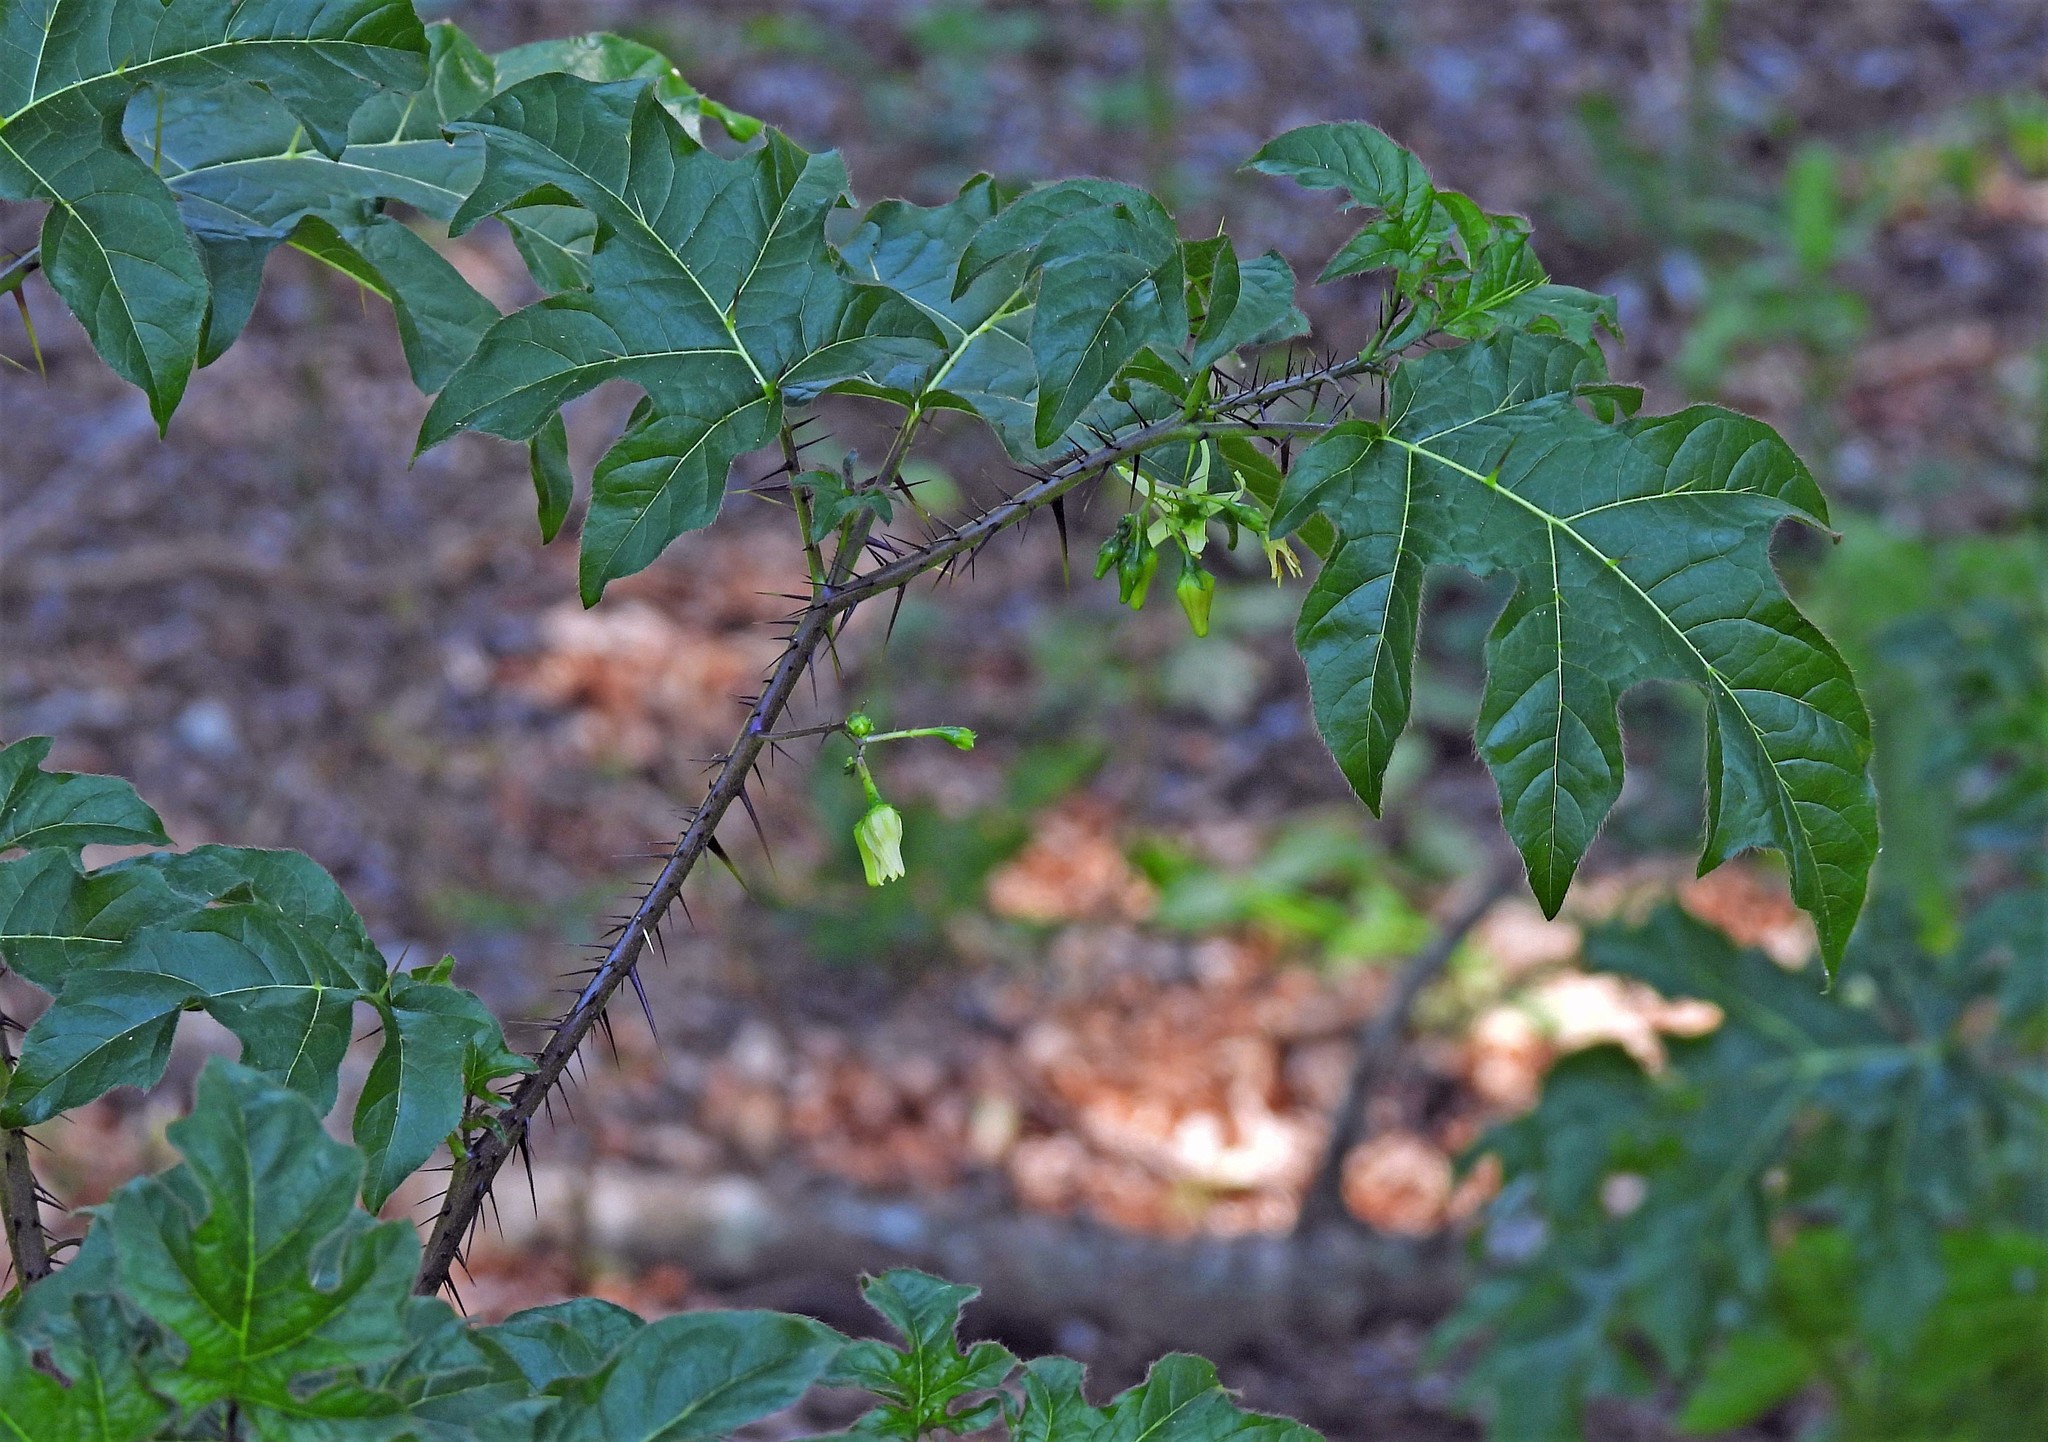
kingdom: Plantae
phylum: Tracheophyta
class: Magnoliopsida
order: Solanales
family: Solanaceae
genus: Solanum
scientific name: Solanum atropurpureum
